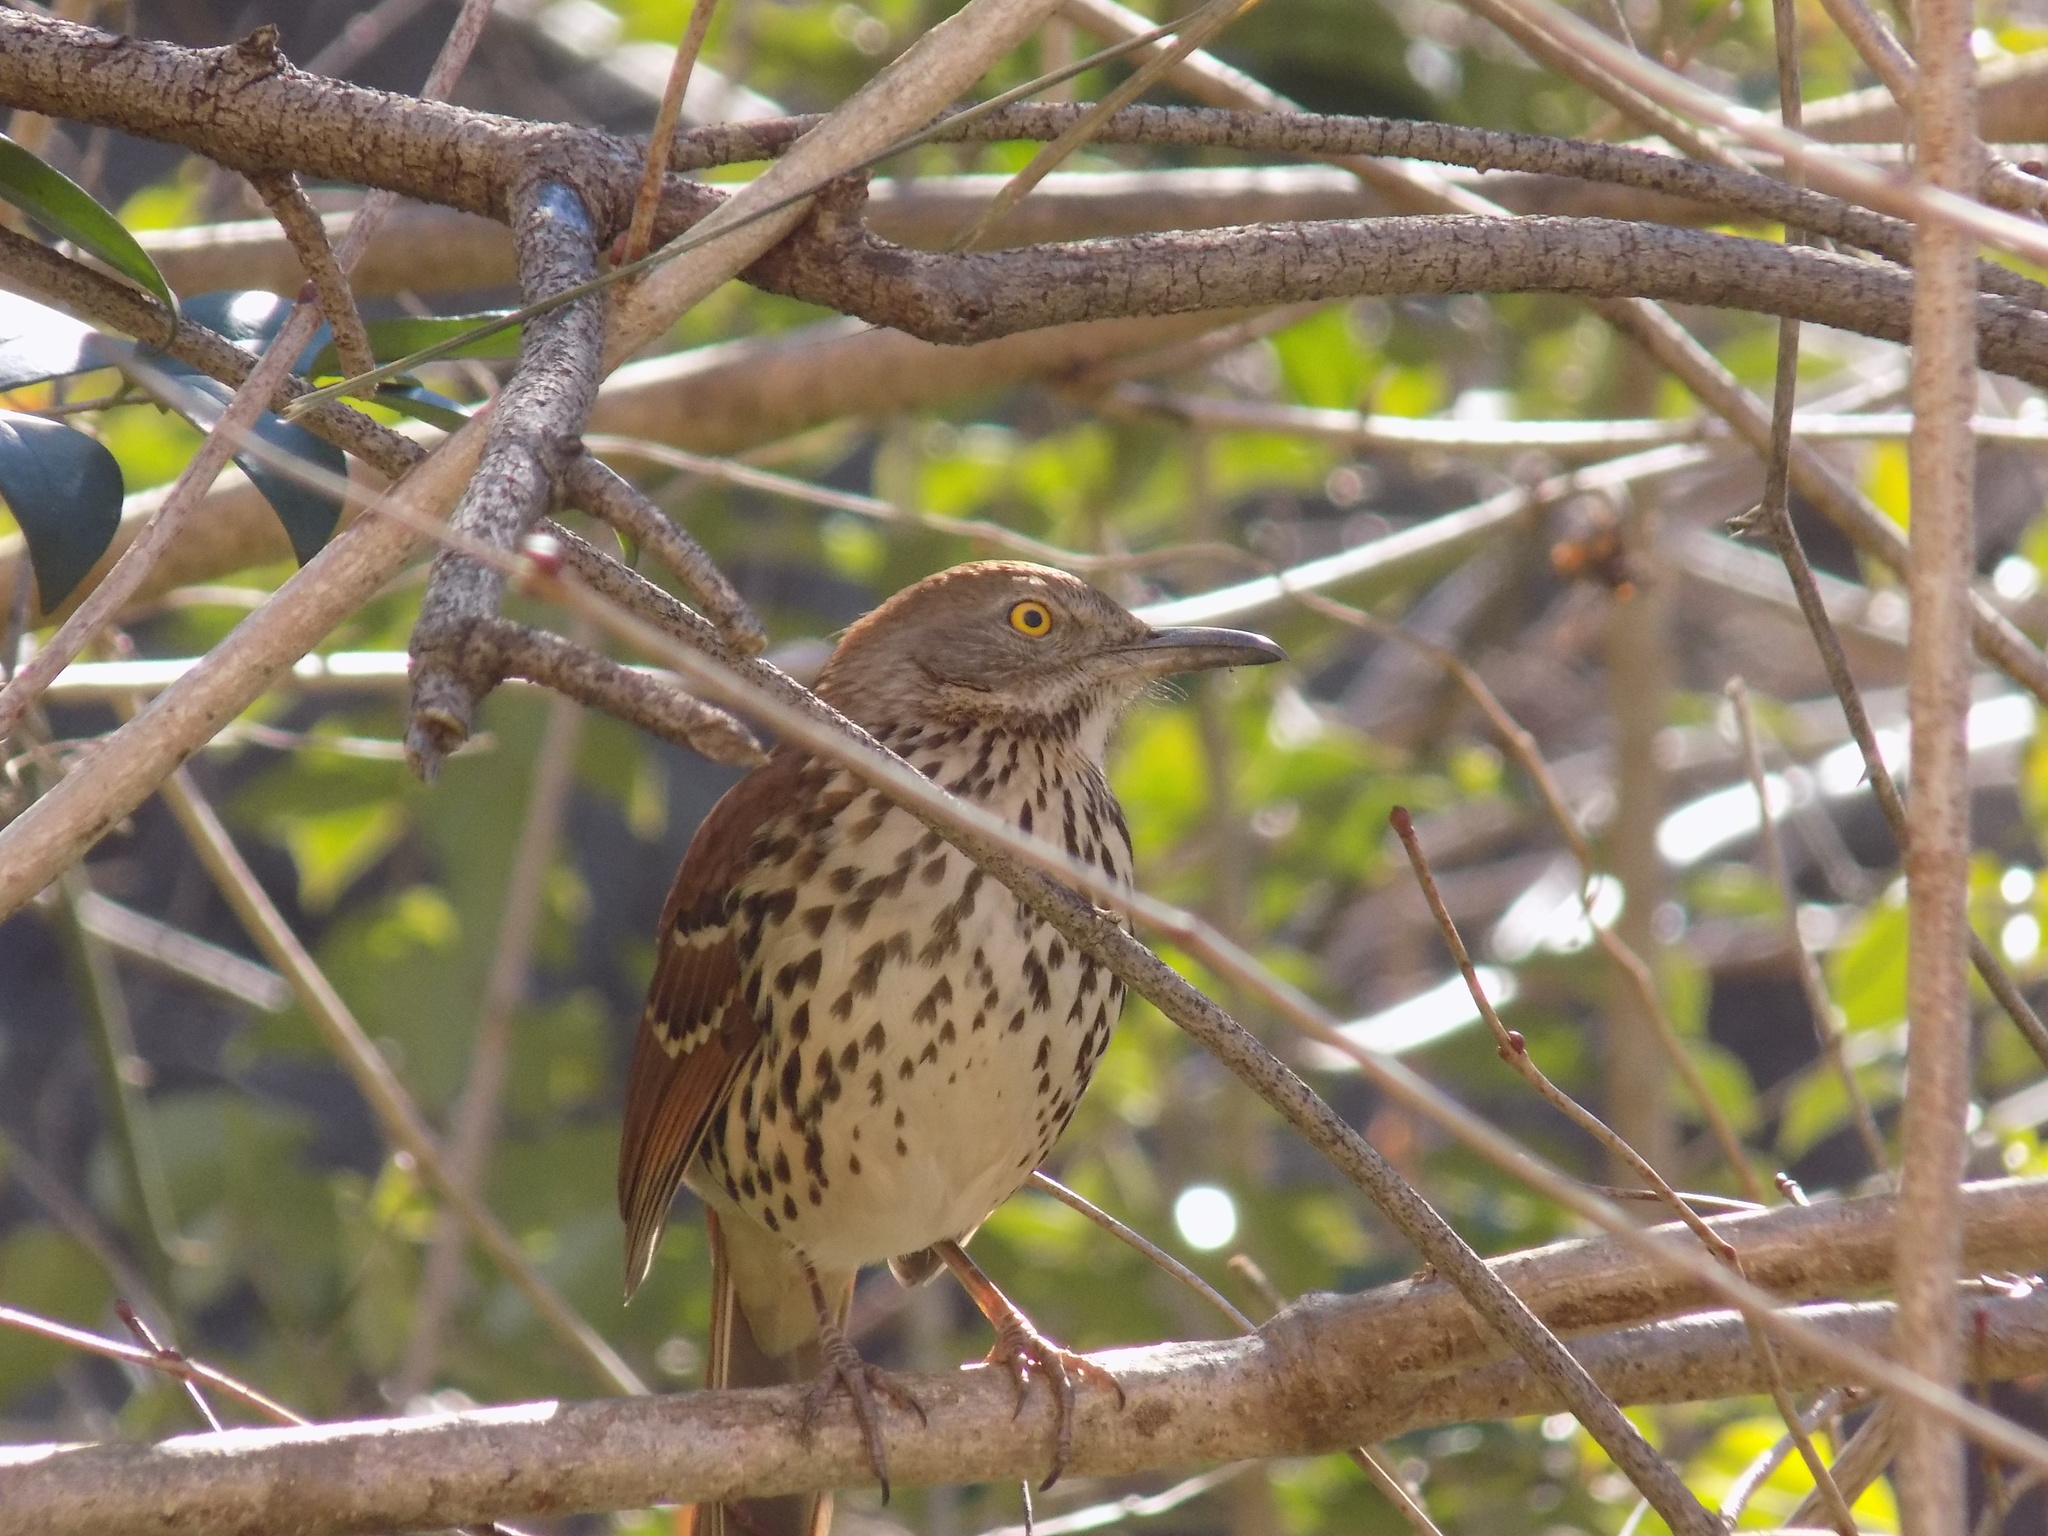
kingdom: Animalia
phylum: Chordata
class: Aves
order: Passeriformes
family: Mimidae
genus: Toxostoma
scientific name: Toxostoma rufum
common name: Brown thrasher
